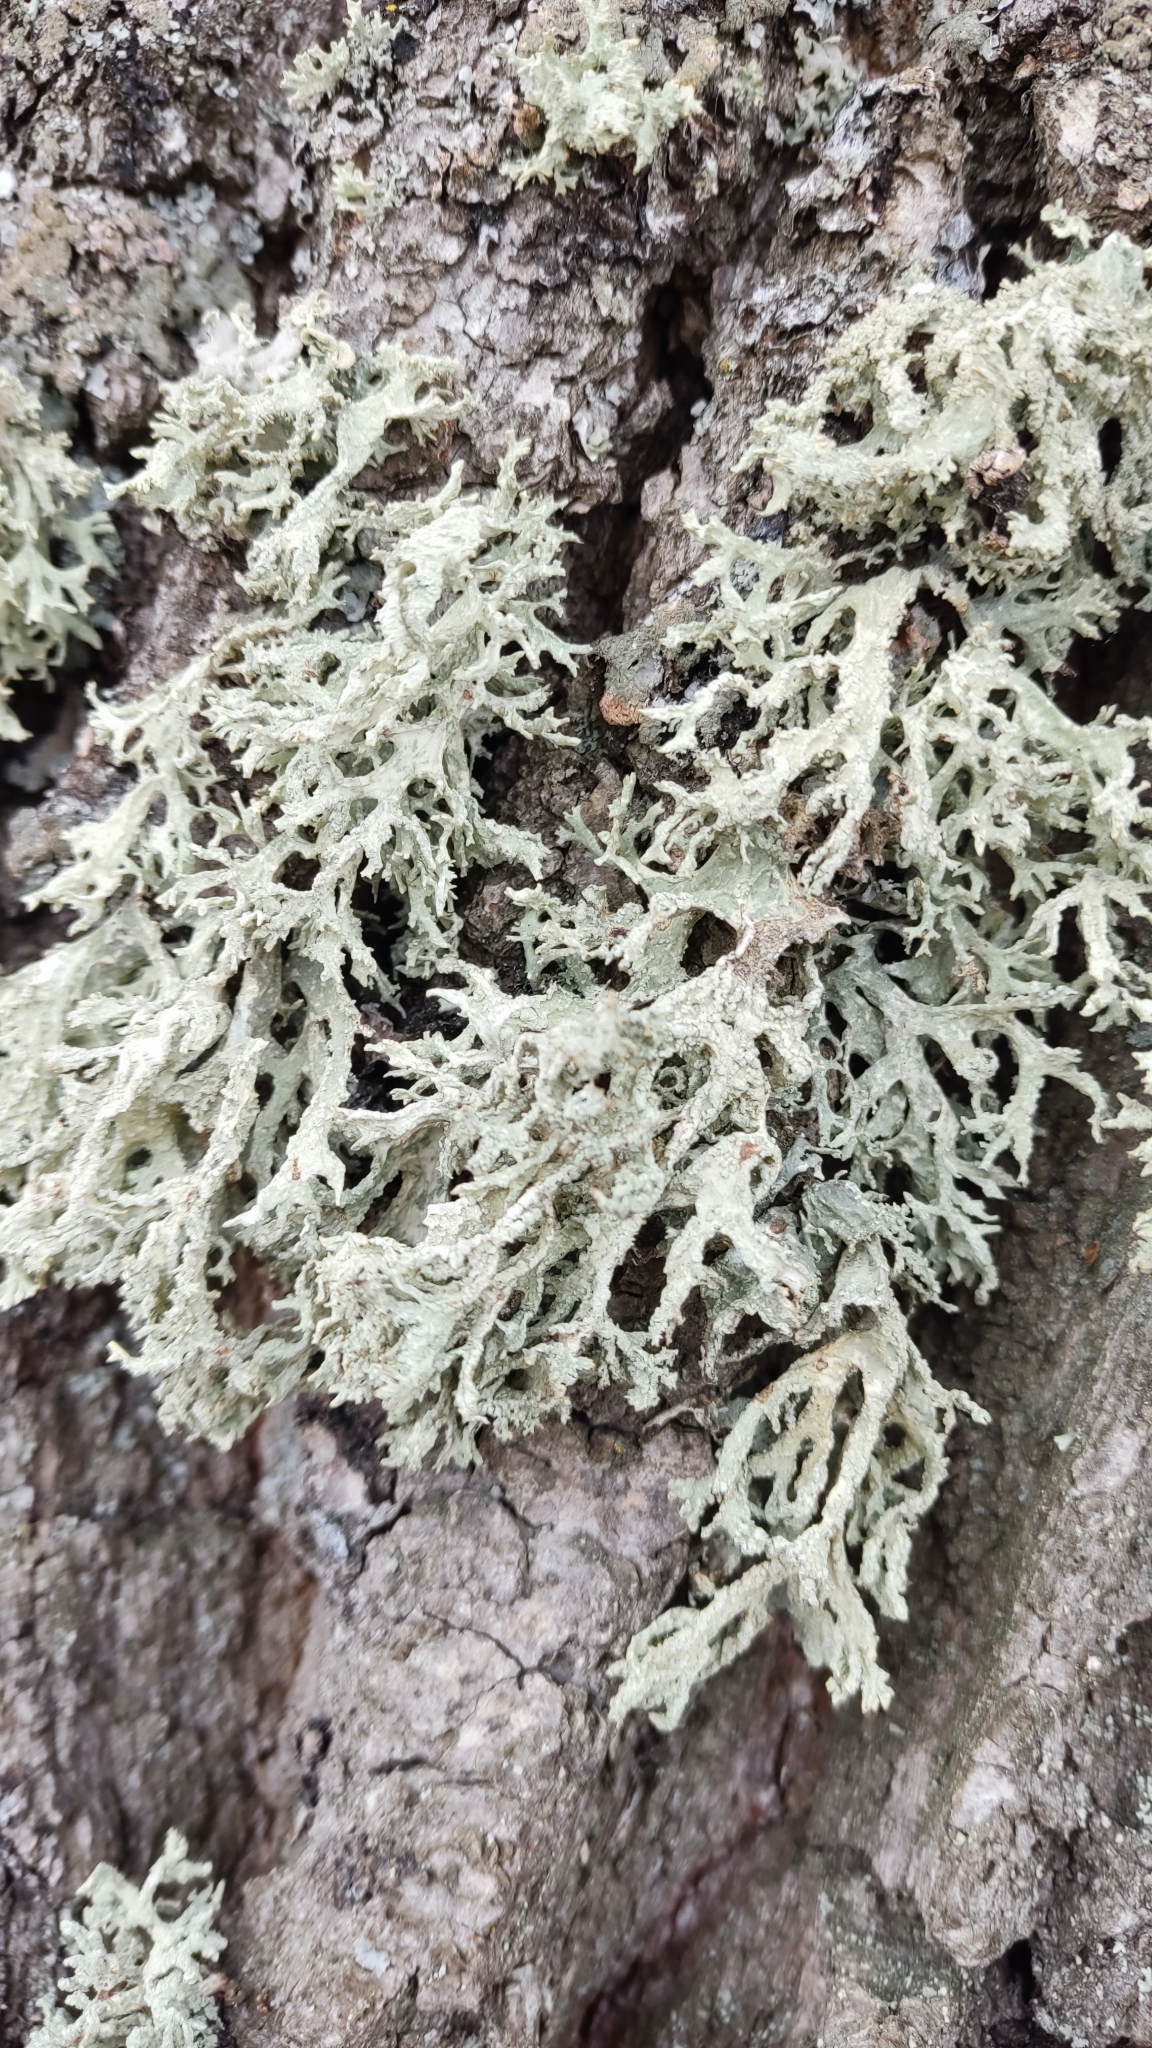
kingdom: Fungi
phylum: Ascomycota
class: Lecanoromycetes
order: Lecanorales
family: Parmeliaceae
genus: Evernia
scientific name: Evernia prunastri
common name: Oak moss
